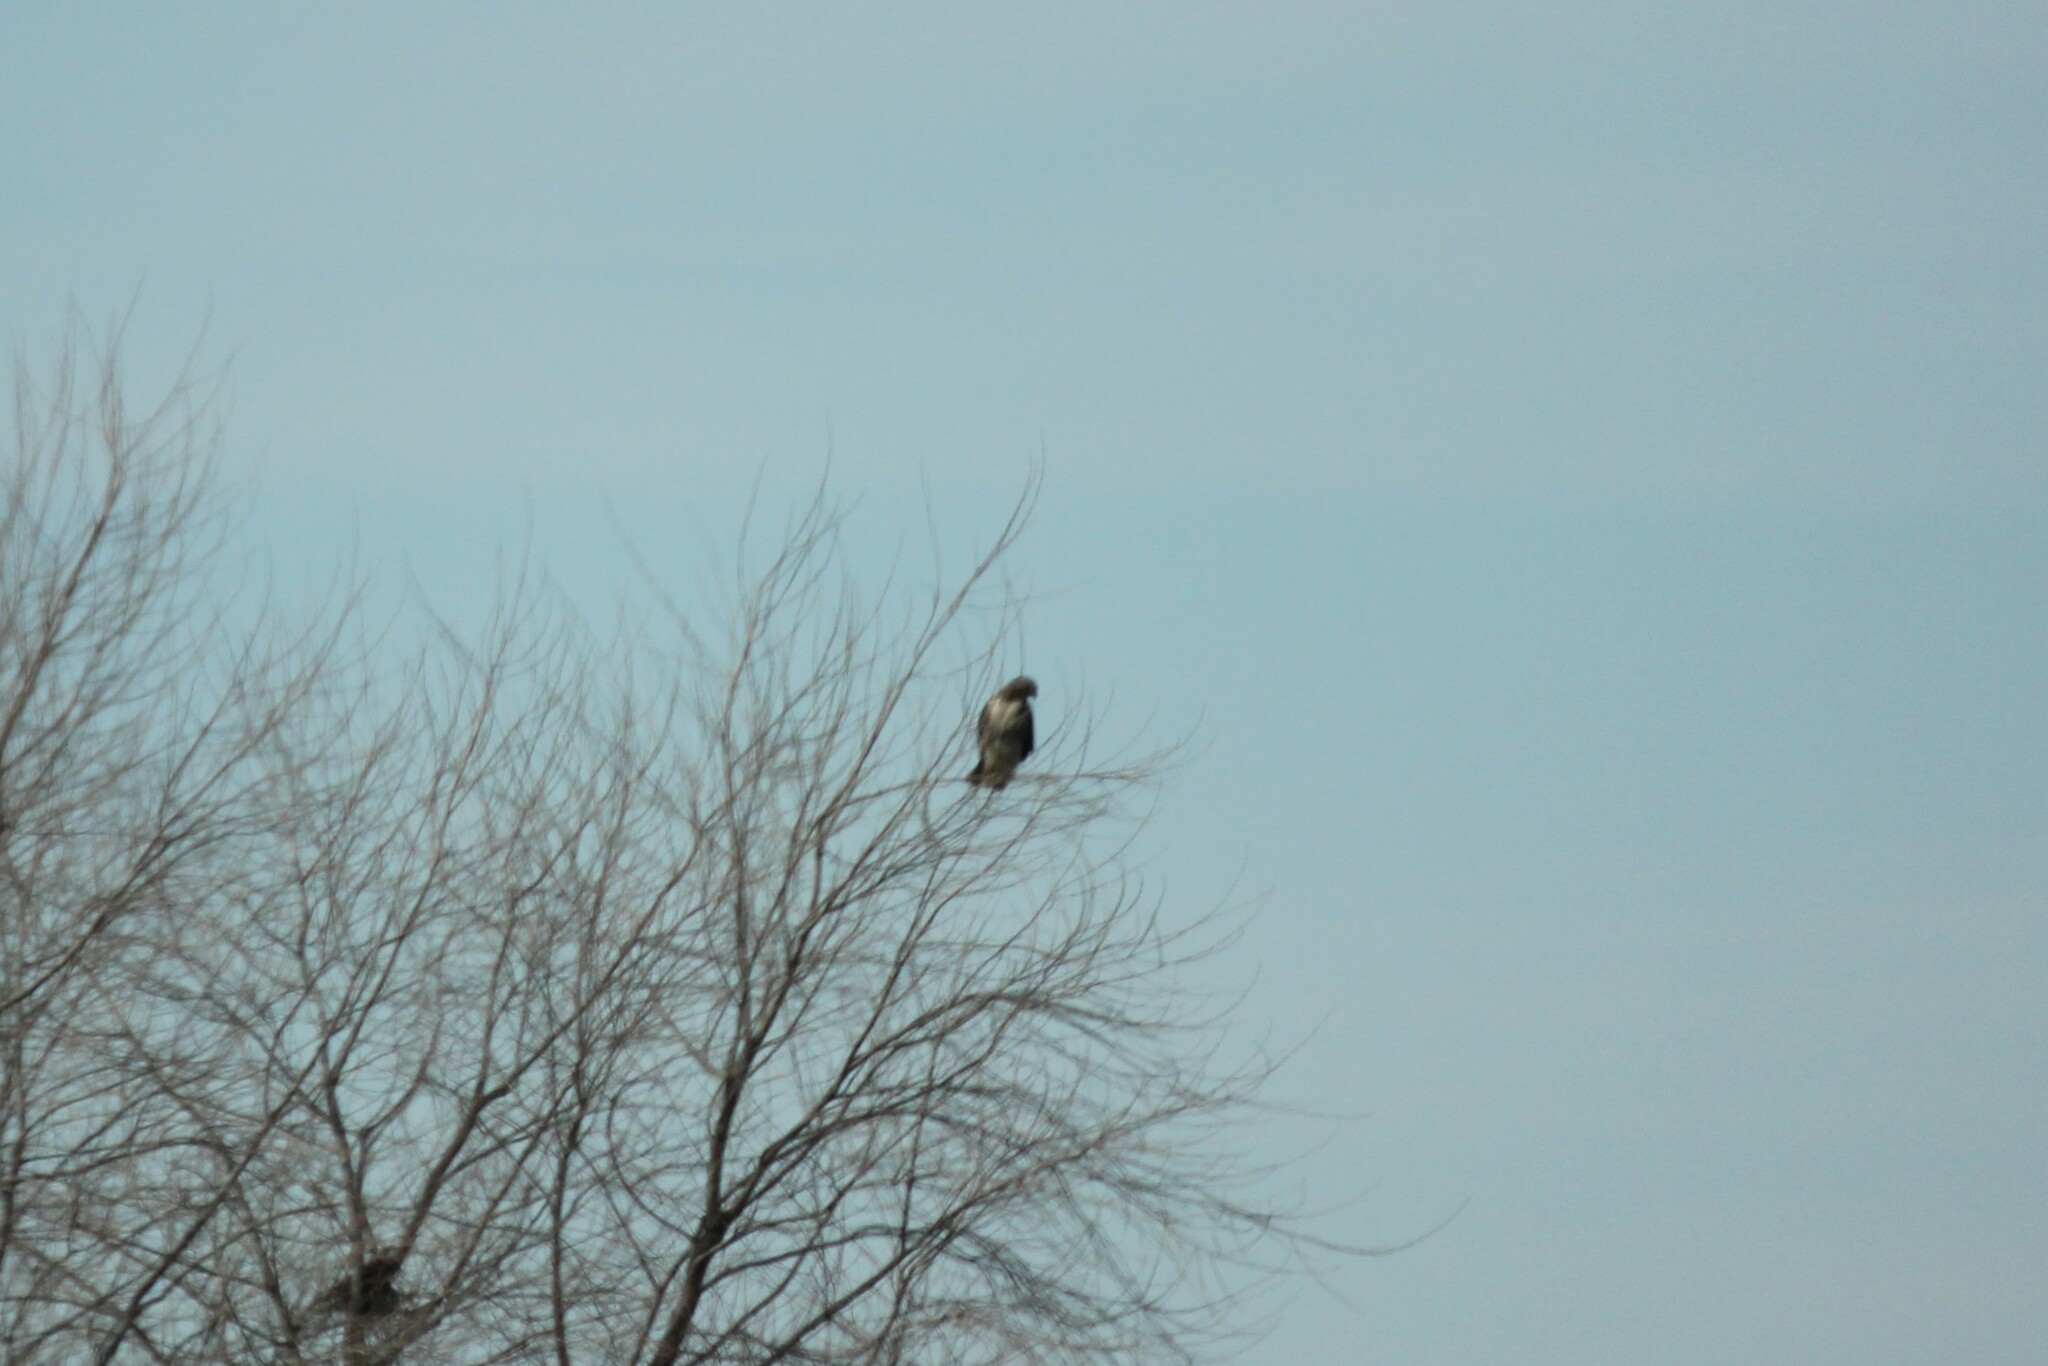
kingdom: Animalia
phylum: Chordata
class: Aves
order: Accipitriformes
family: Accipitridae
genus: Buteo
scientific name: Buteo jamaicensis
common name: Red-tailed hawk
